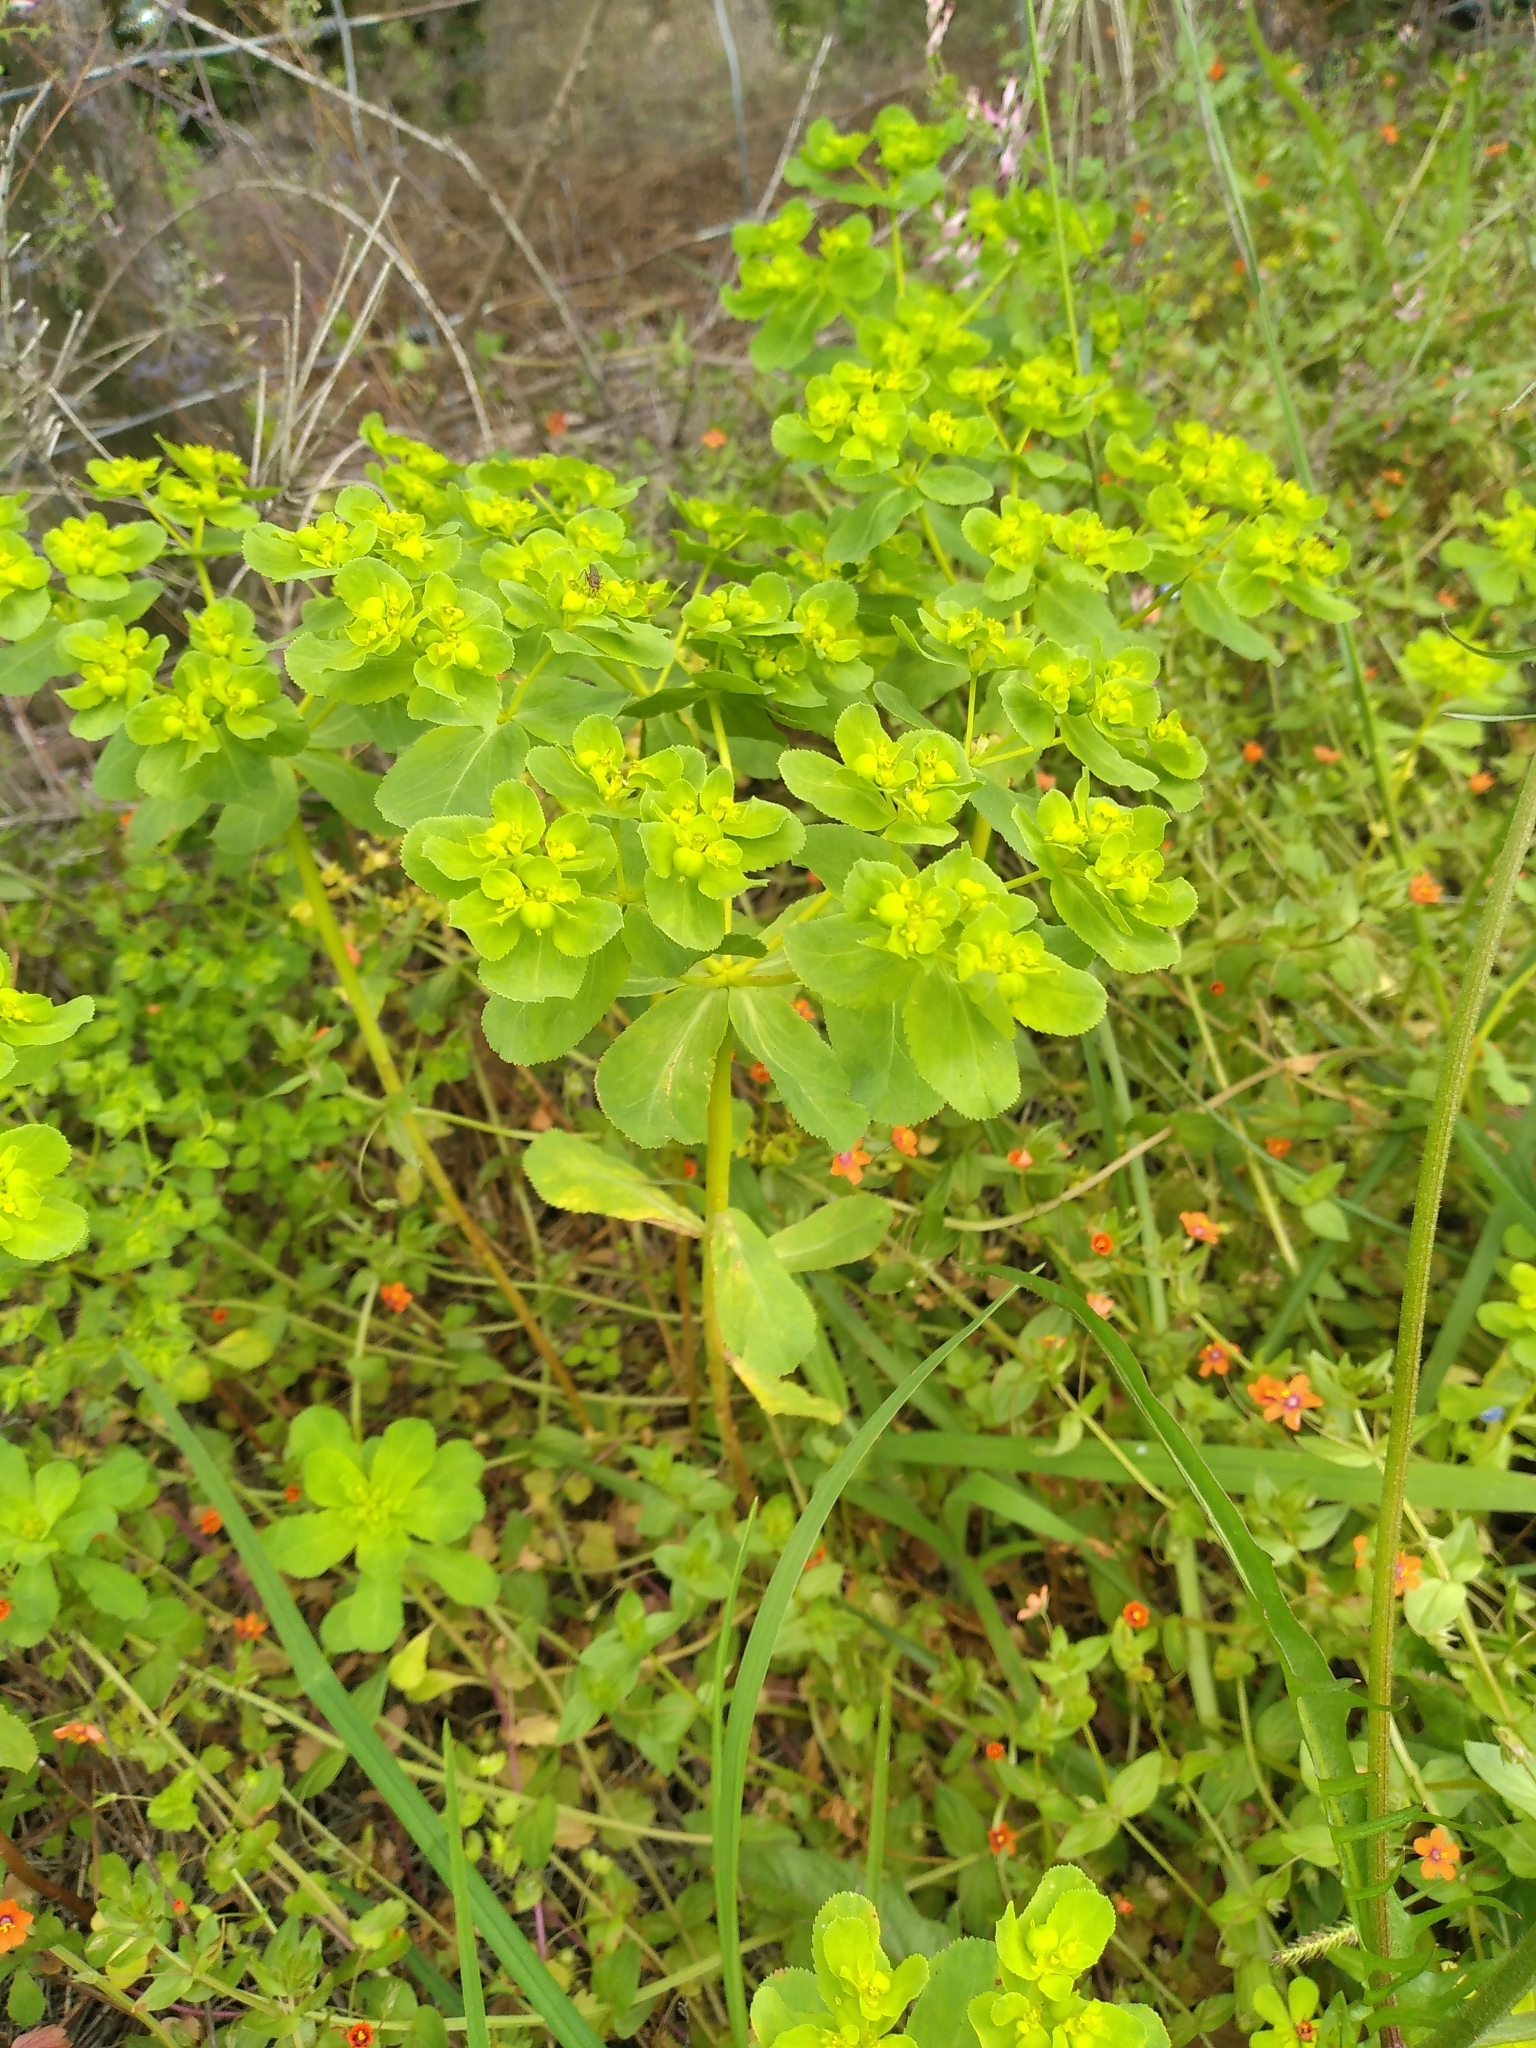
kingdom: Plantae
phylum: Tracheophyta
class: Magnoliopsida
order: Malpighiales
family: Euphorbiaceae
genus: Euphorbia
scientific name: Euphorbia helioscopia
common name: Sun spurge
